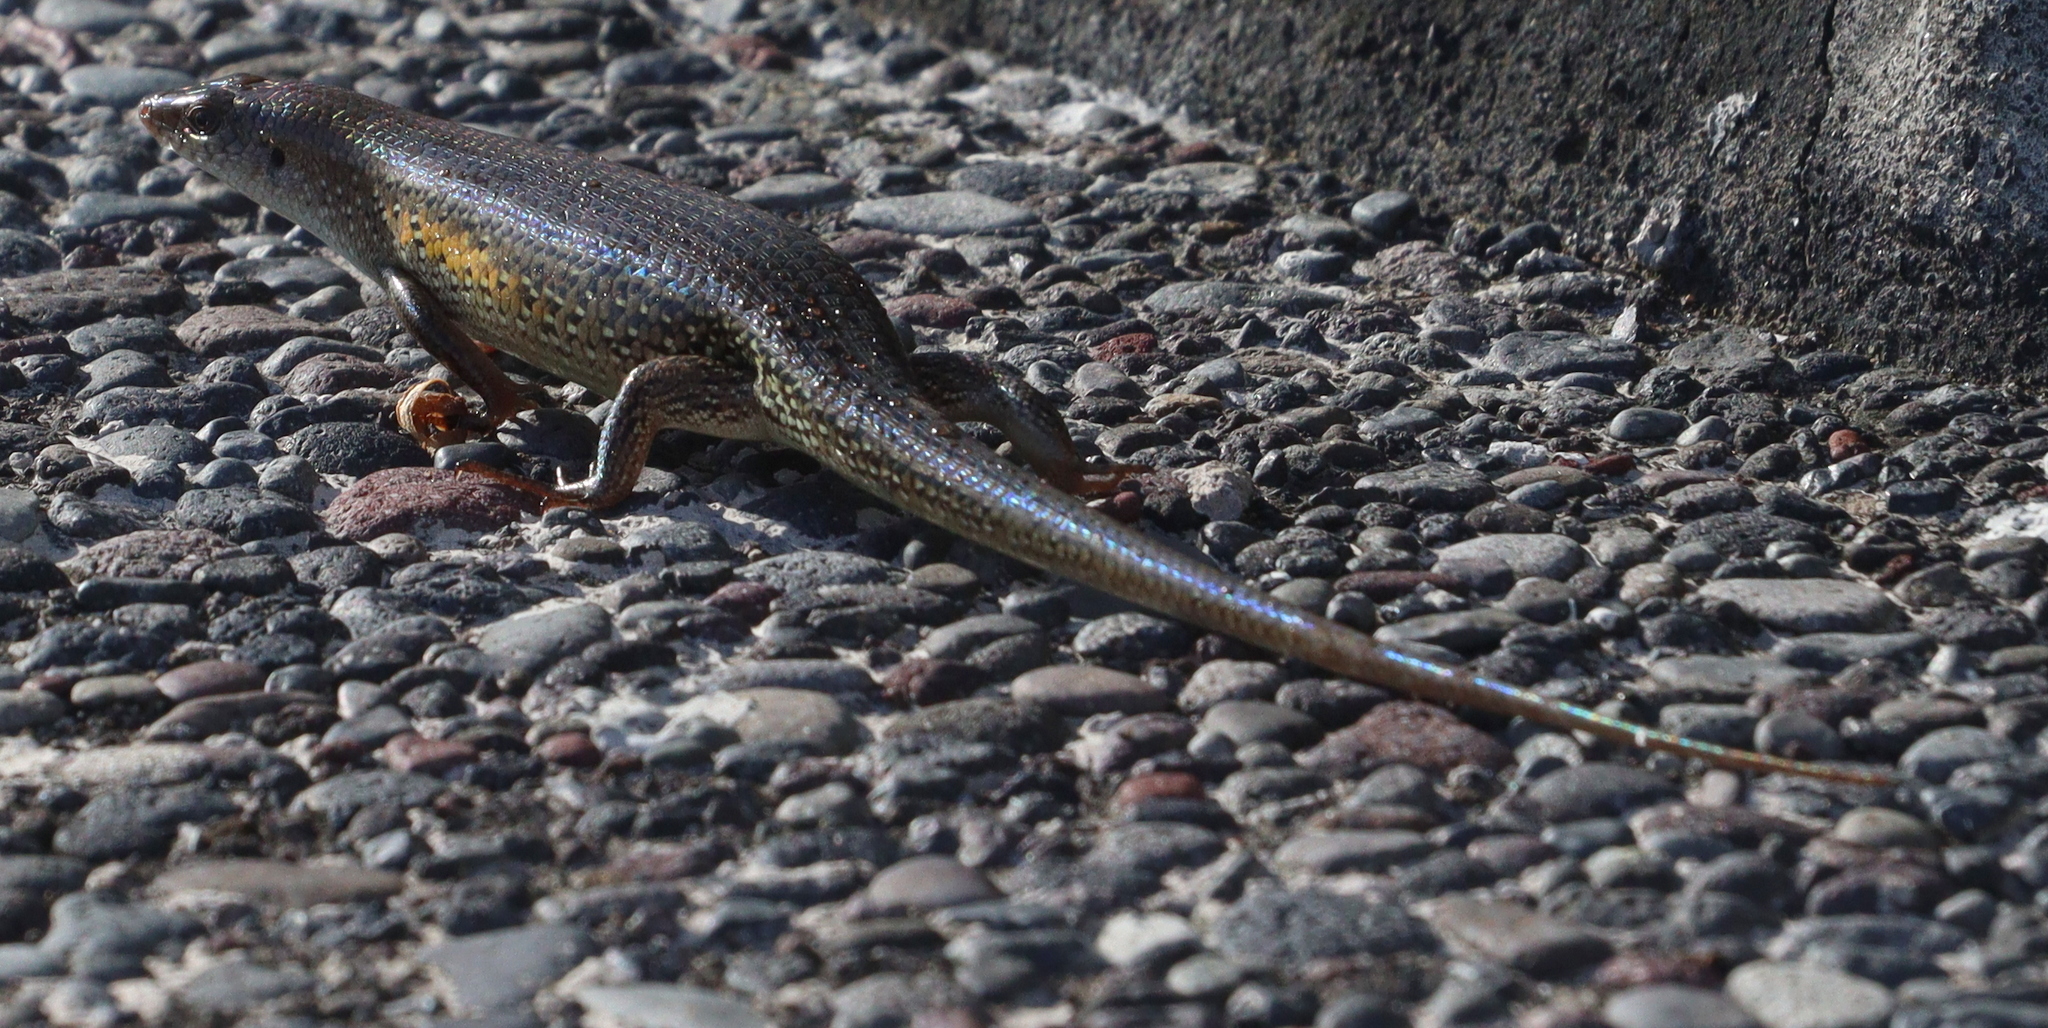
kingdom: Animalia
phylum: Chordata
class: Squamata
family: Scincidae
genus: Eutropis
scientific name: Eutropis multifasciata
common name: Common mabuya
